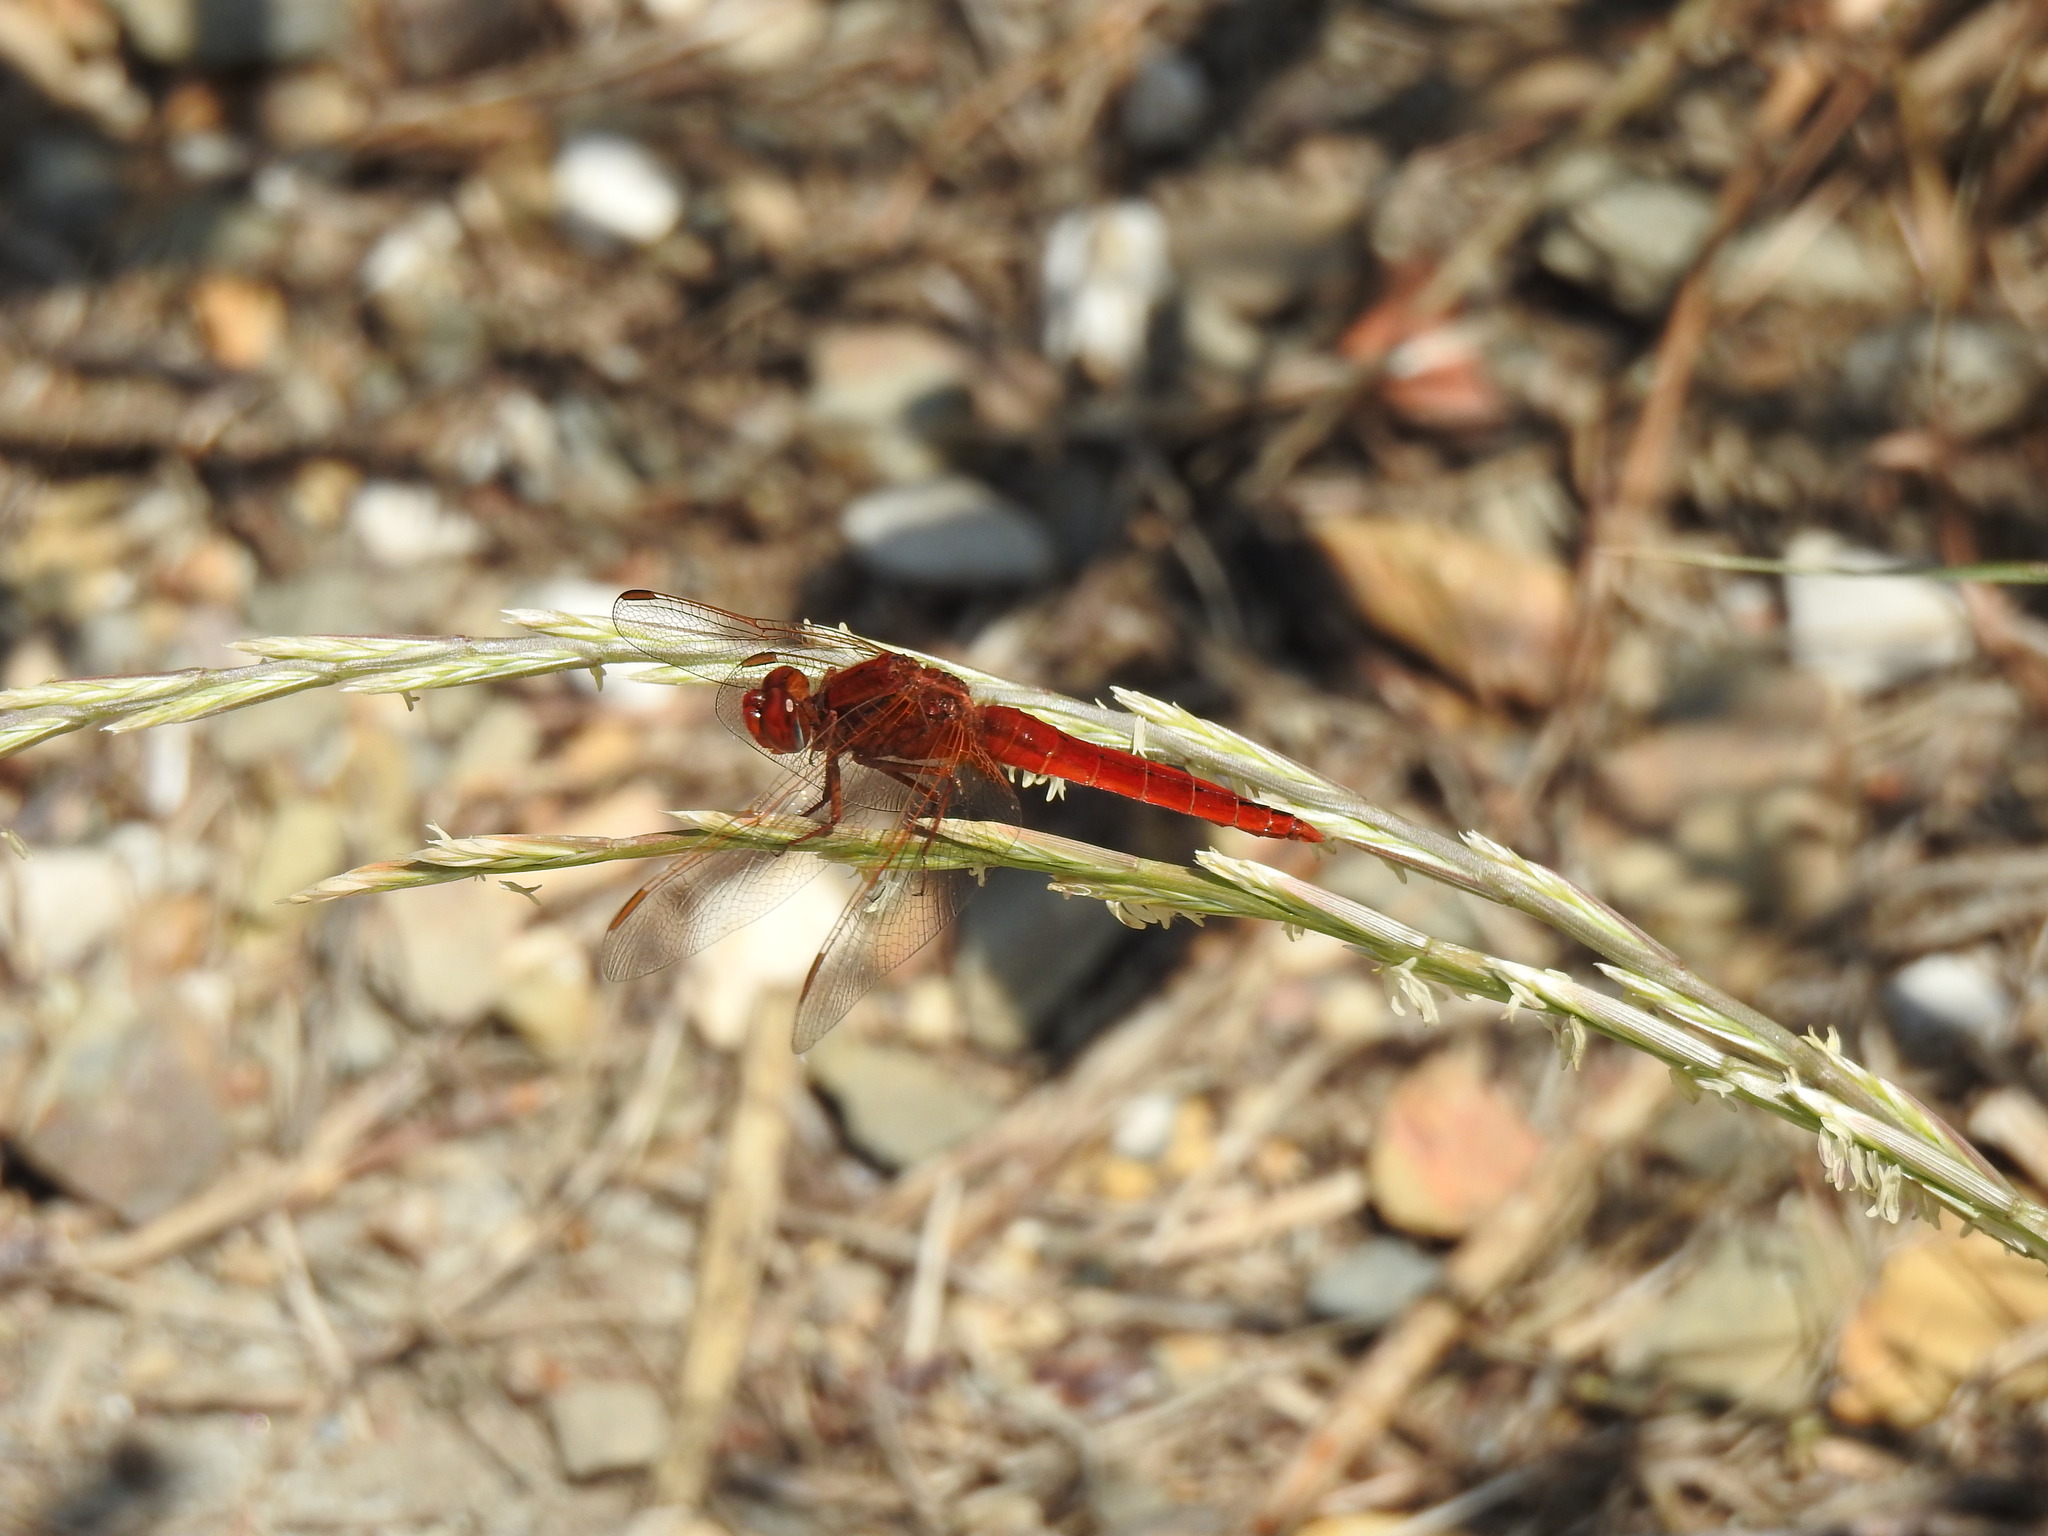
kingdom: Animalia
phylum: Arthropoda
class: Insecta
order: Odonata
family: Libellulidae
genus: Crocothemis
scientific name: Crocothemis erythraea
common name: Scarlet dragonfly
